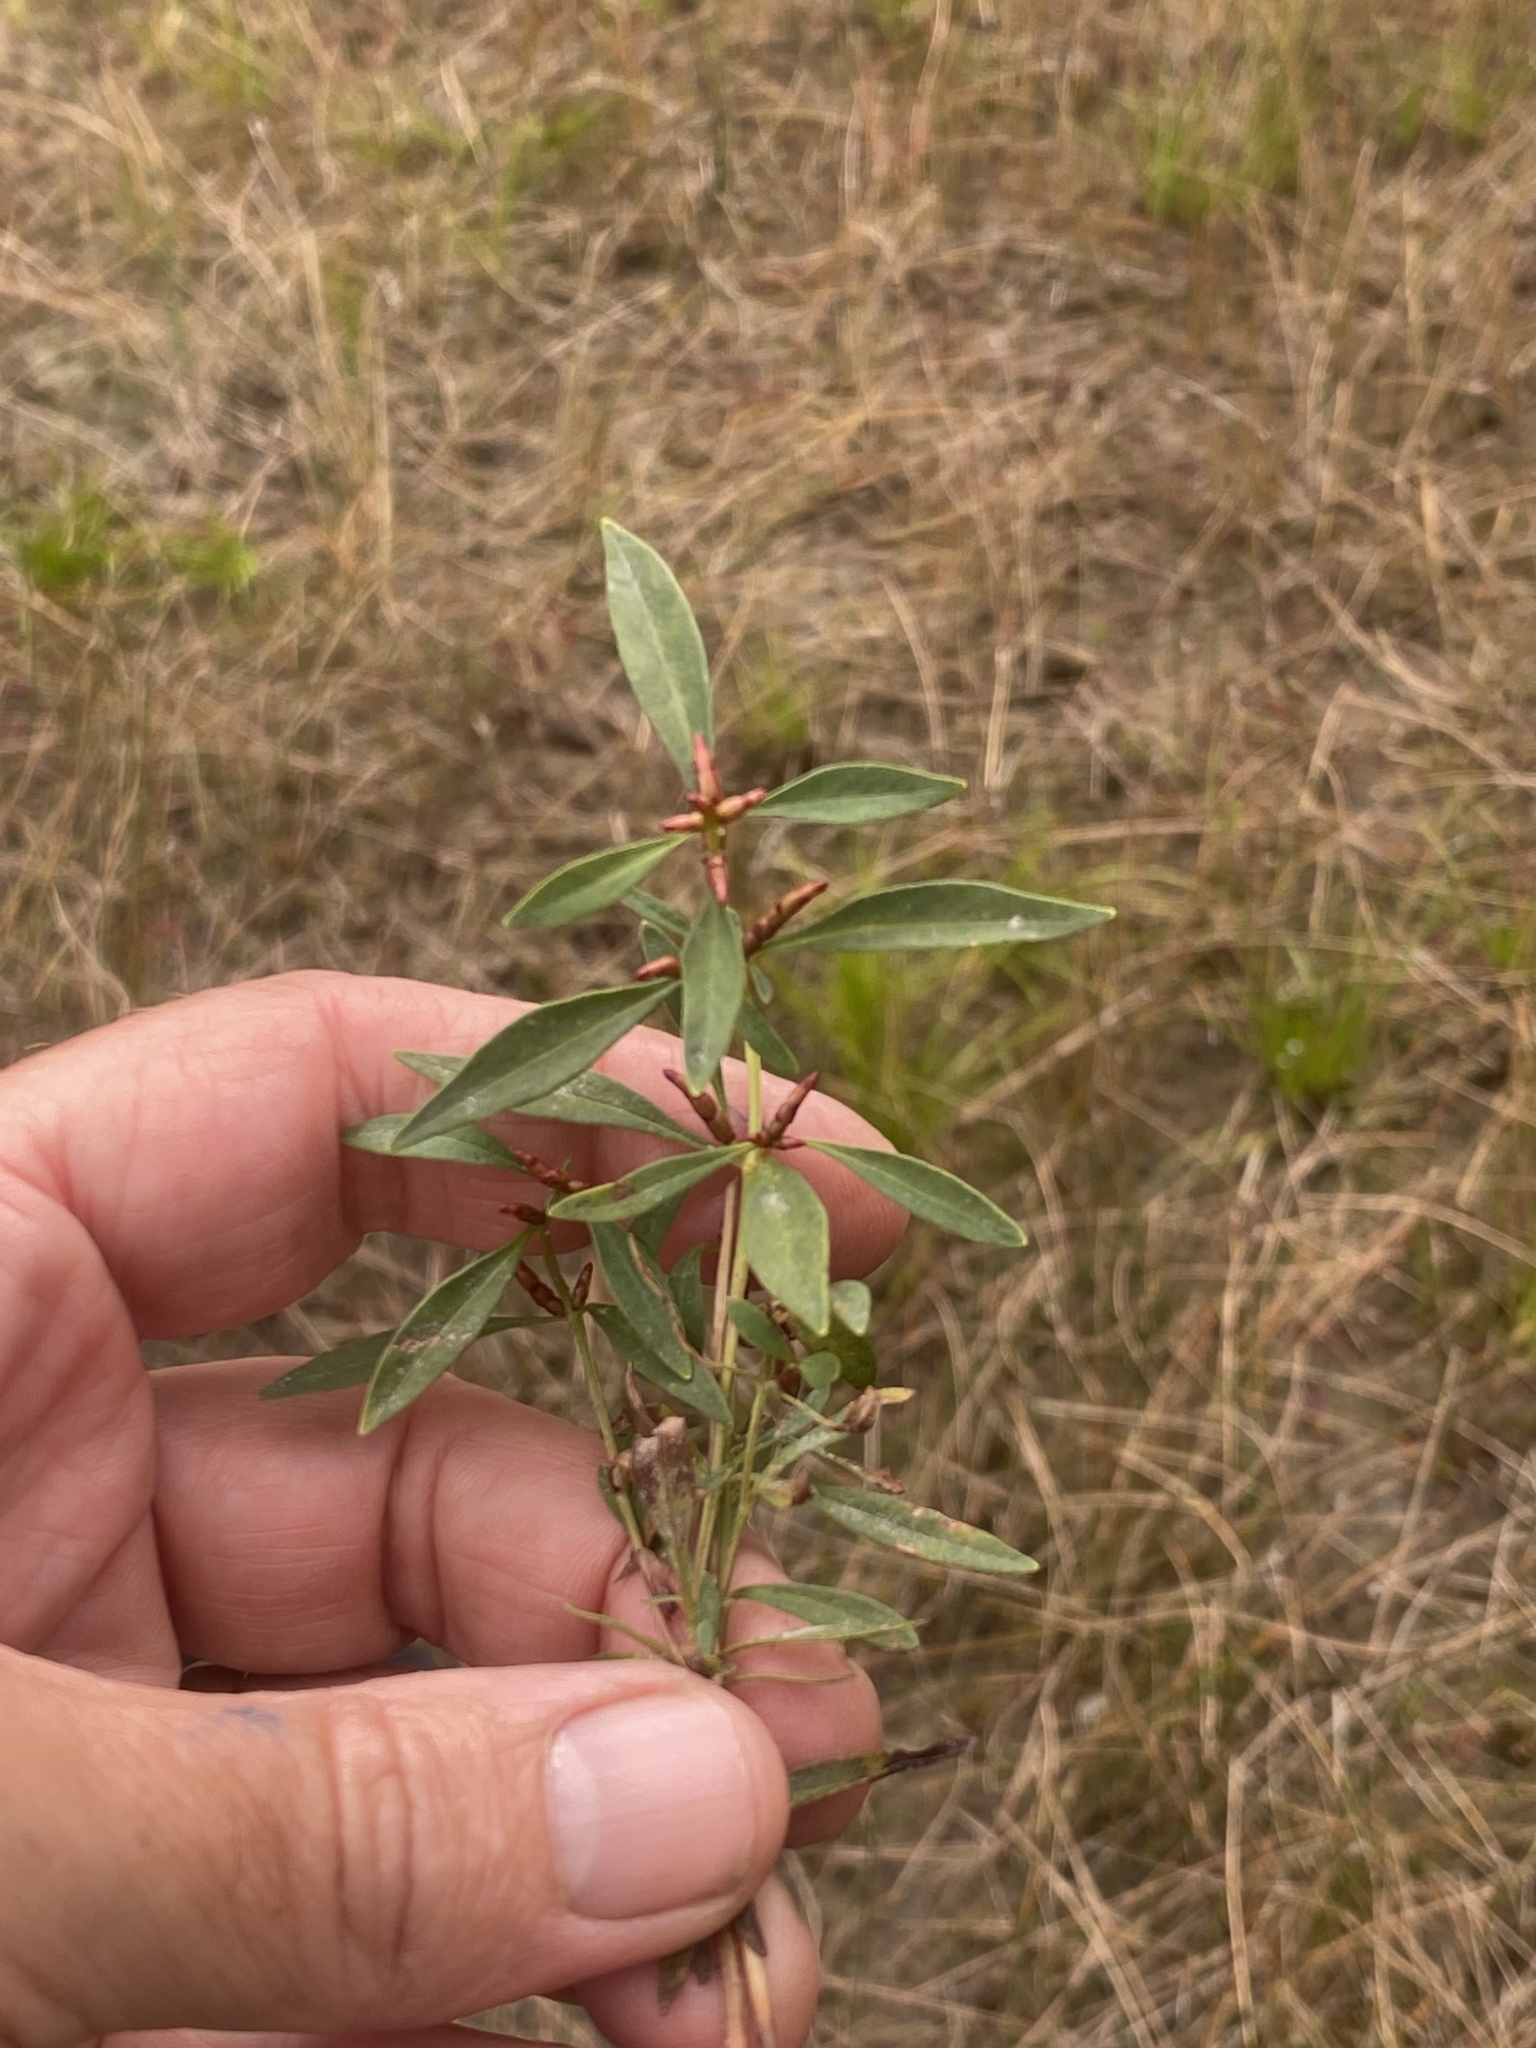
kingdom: Plantae
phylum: Tracheophyta
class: Magnoliopsida
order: Ericales
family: Primulaceae
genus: Lysimachia
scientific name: Lysimachia terrestris
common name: Lake loosestrife
